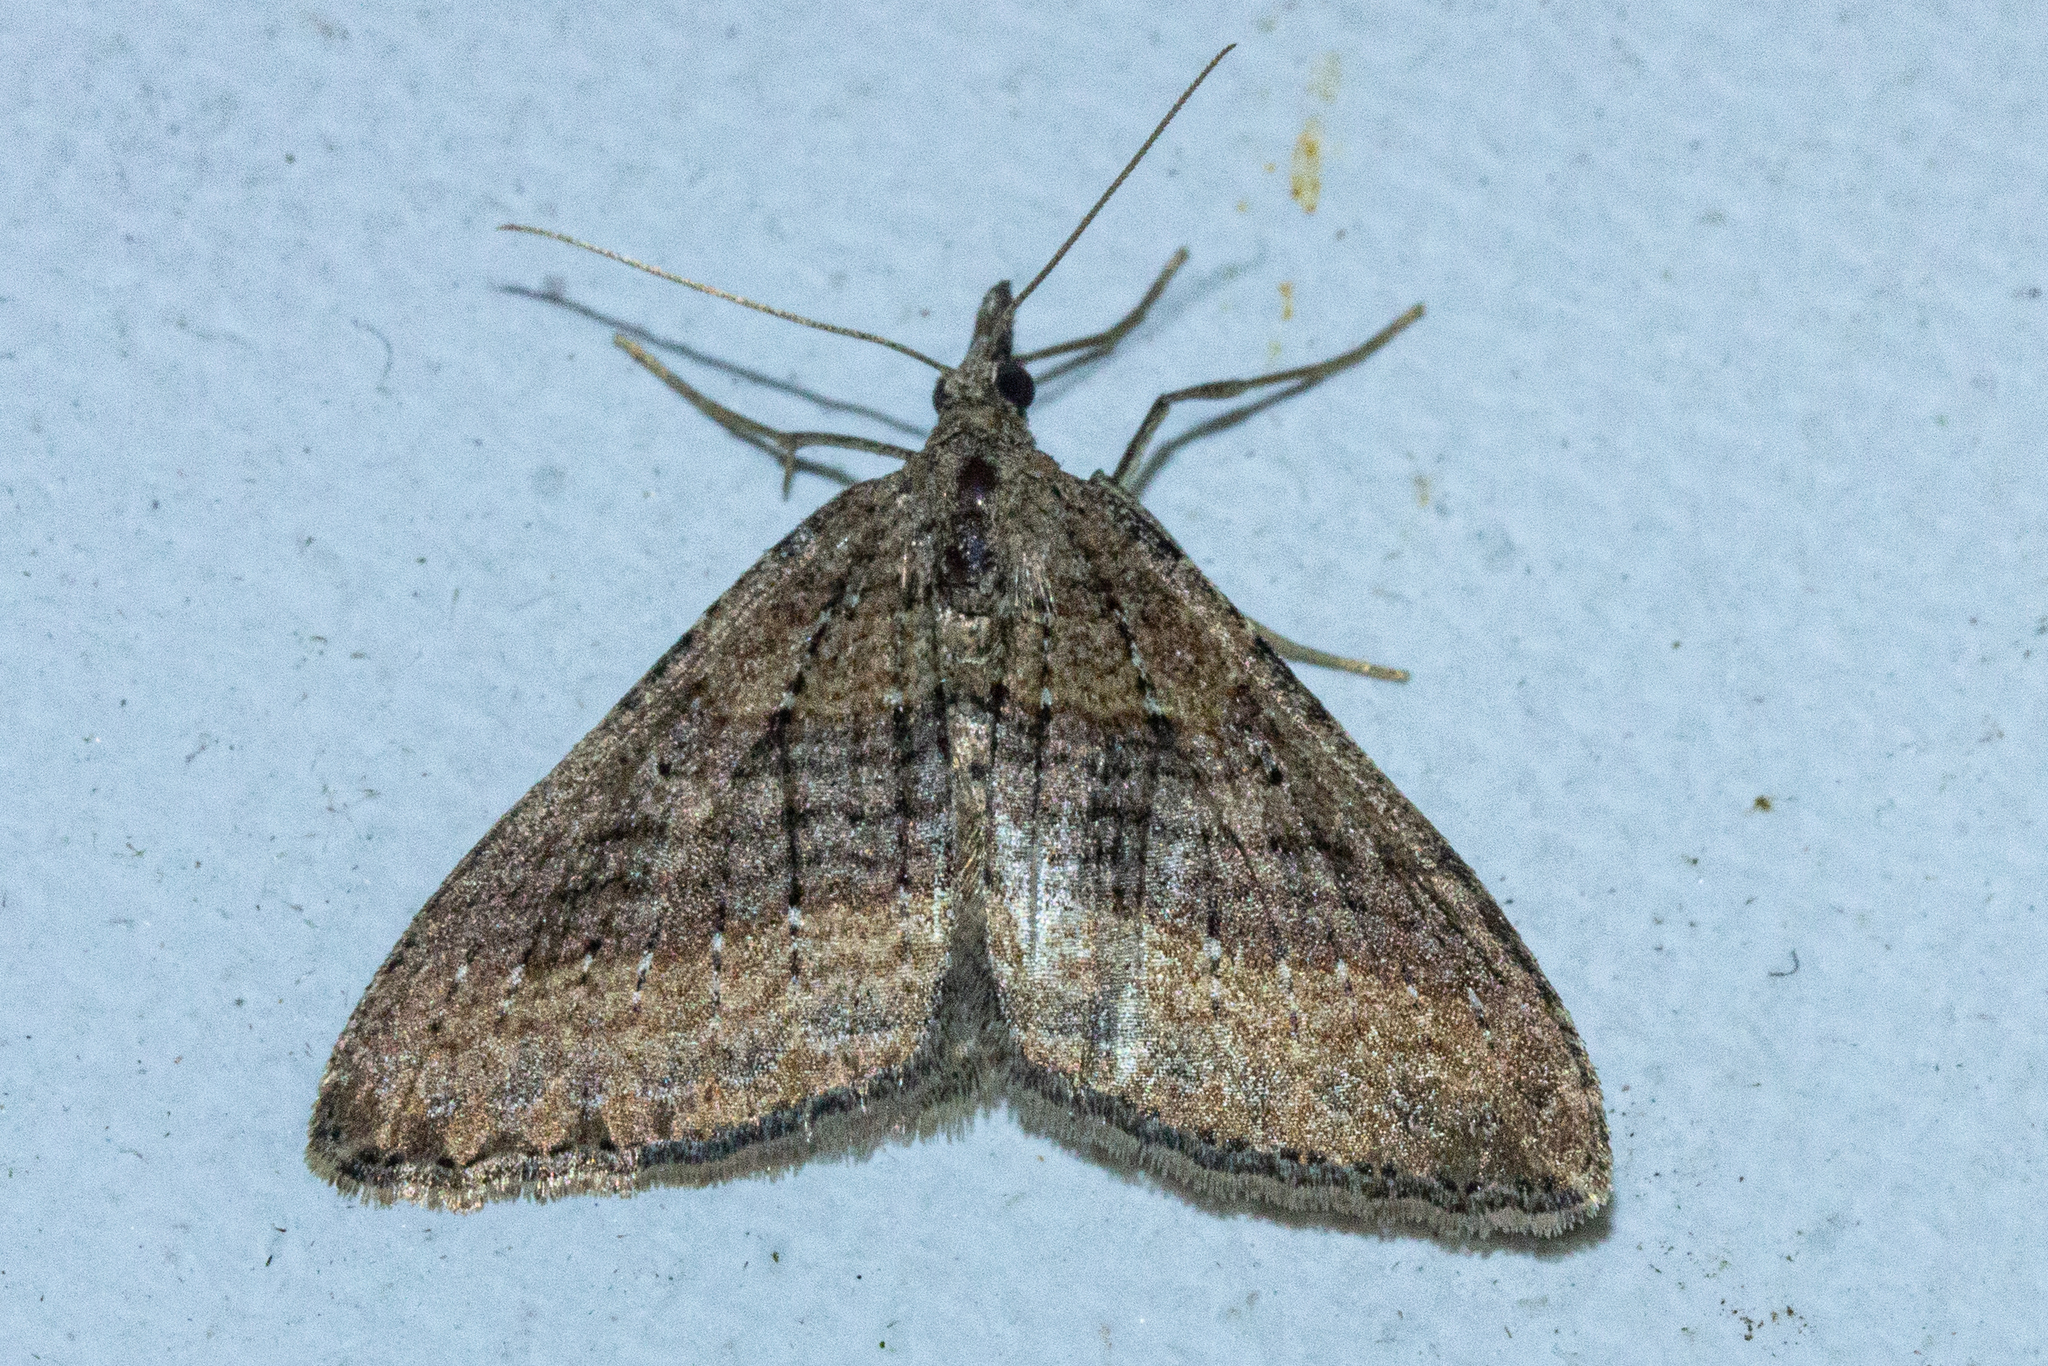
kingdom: Animalia
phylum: Arthropoda
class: Insecta
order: Lepidoptera
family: Geometridae
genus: Epyaxa
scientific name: Epyaxa venipunctata
